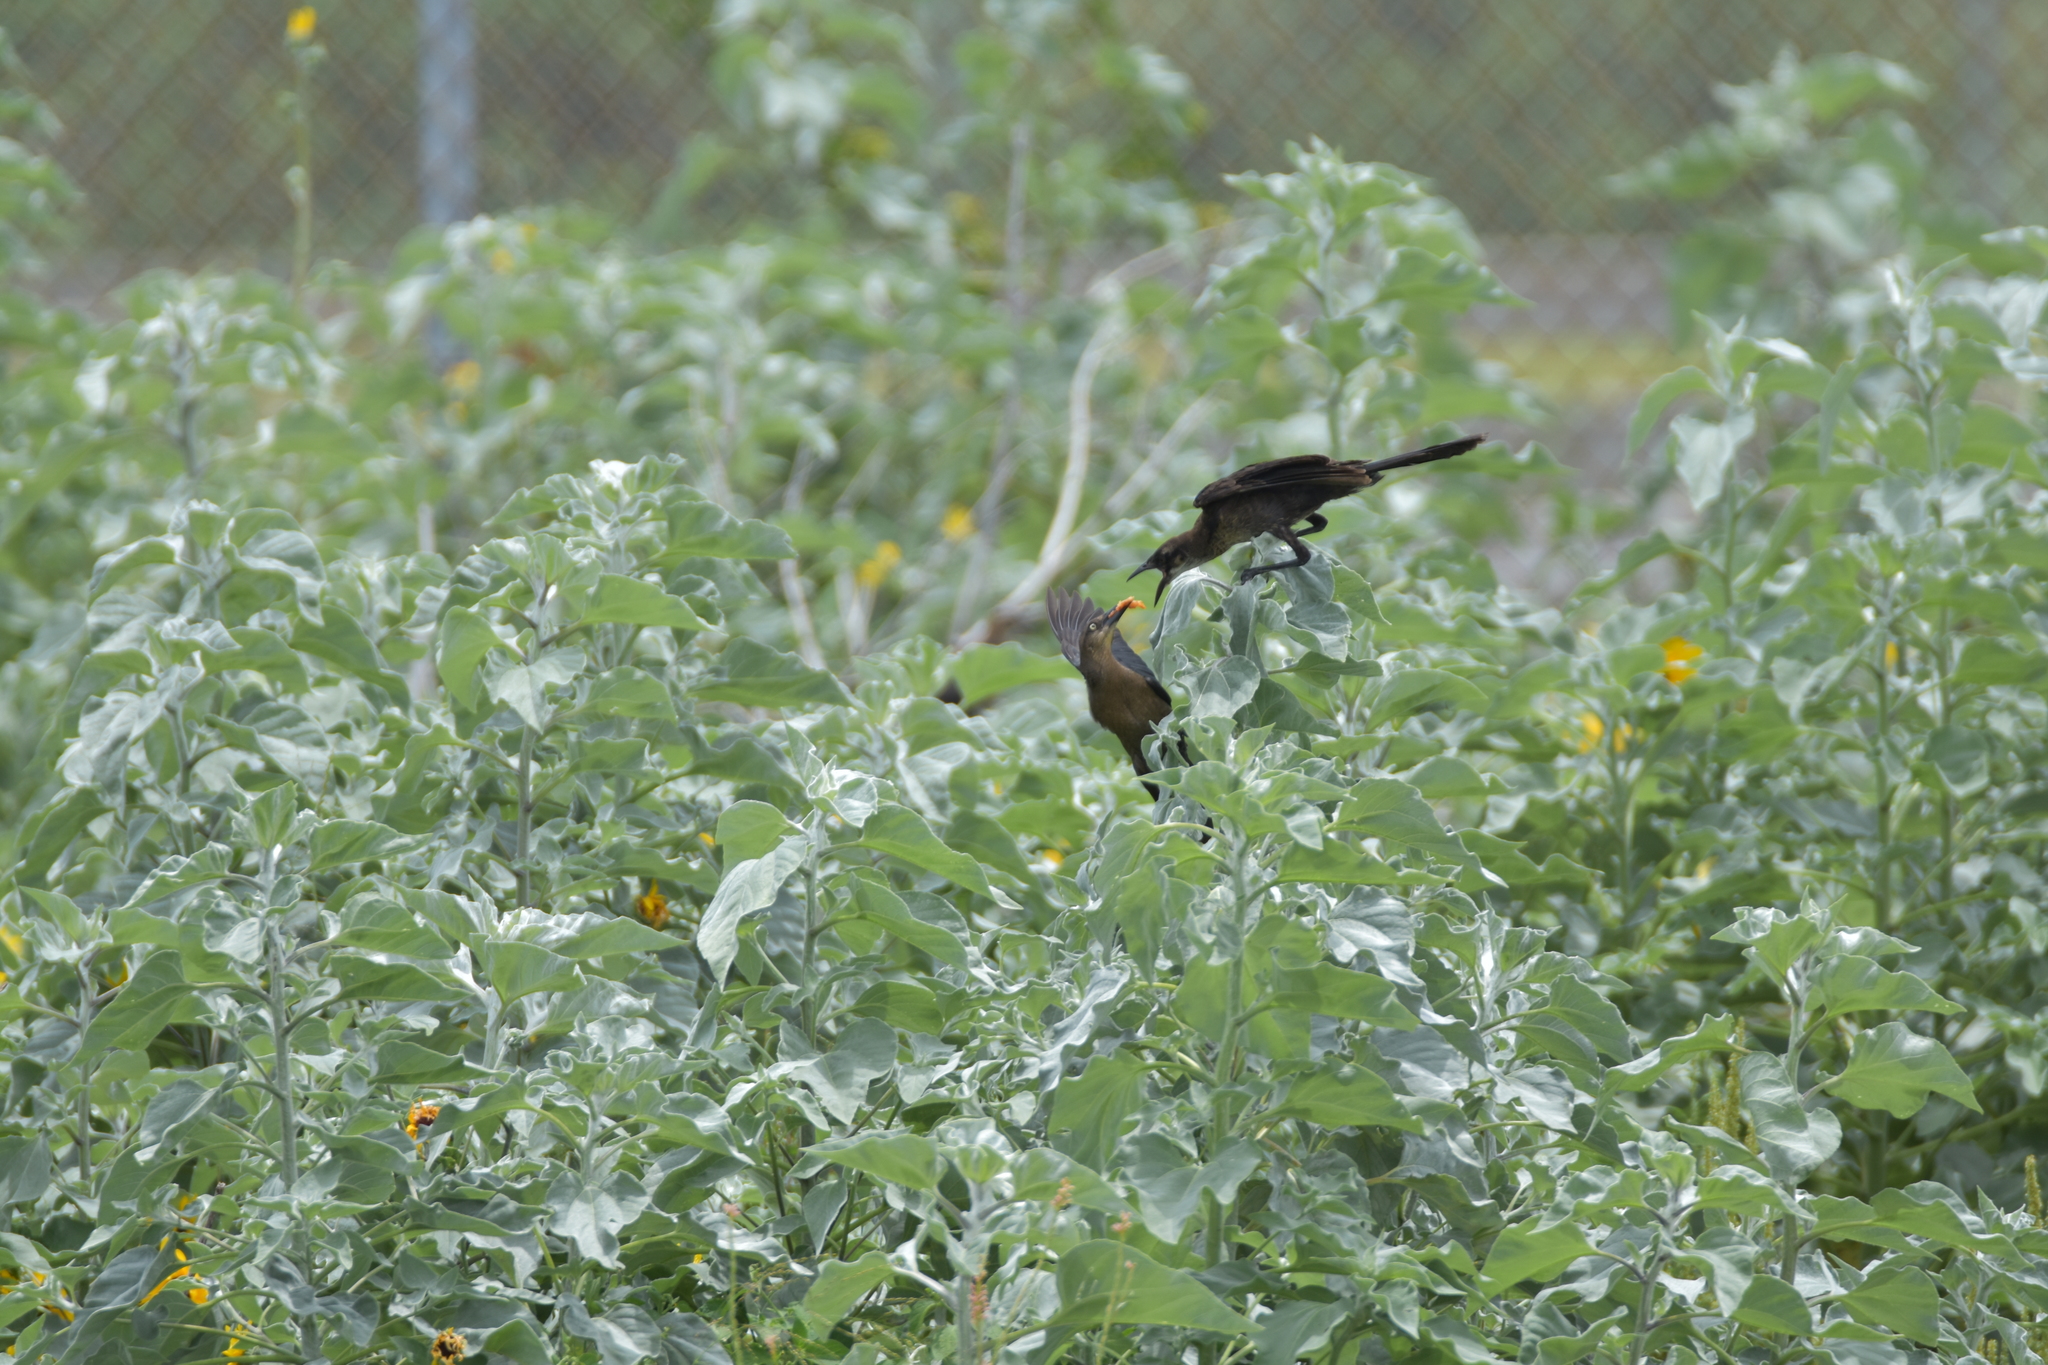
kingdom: Animalia
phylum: Chordata
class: Aves
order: Passeriformes
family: Icteridae
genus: Quiscalus
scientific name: Quiscalus mexicanus
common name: Great-tailed grackle
